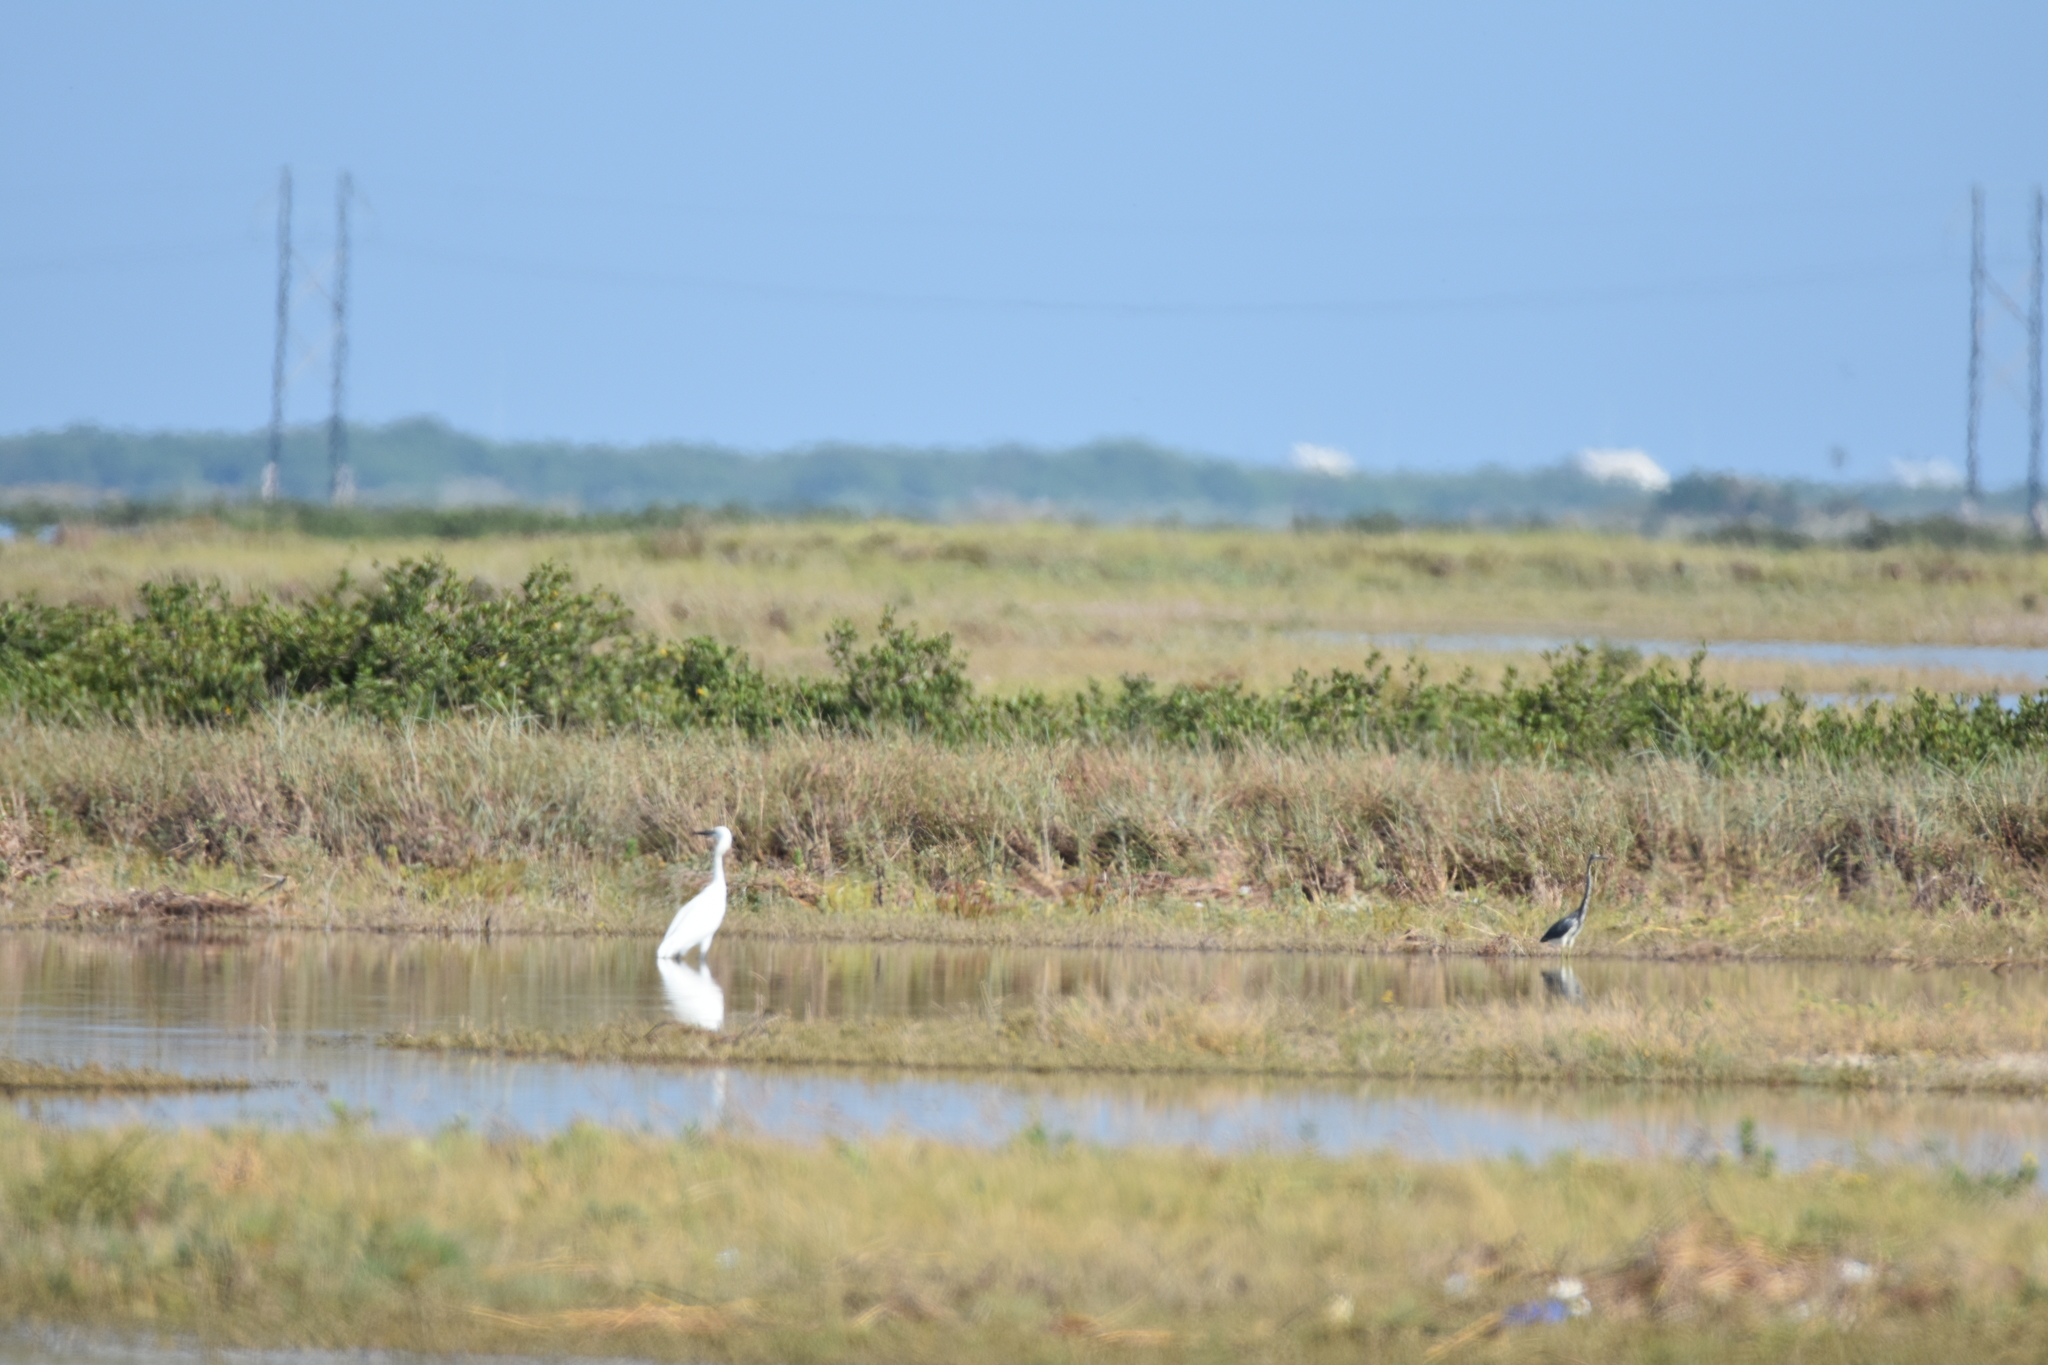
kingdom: Animalia
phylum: Chordata
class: Aves
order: Pelecaniformes
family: Ardeidae
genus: Ardea
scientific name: Ardea alba
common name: Great egret
